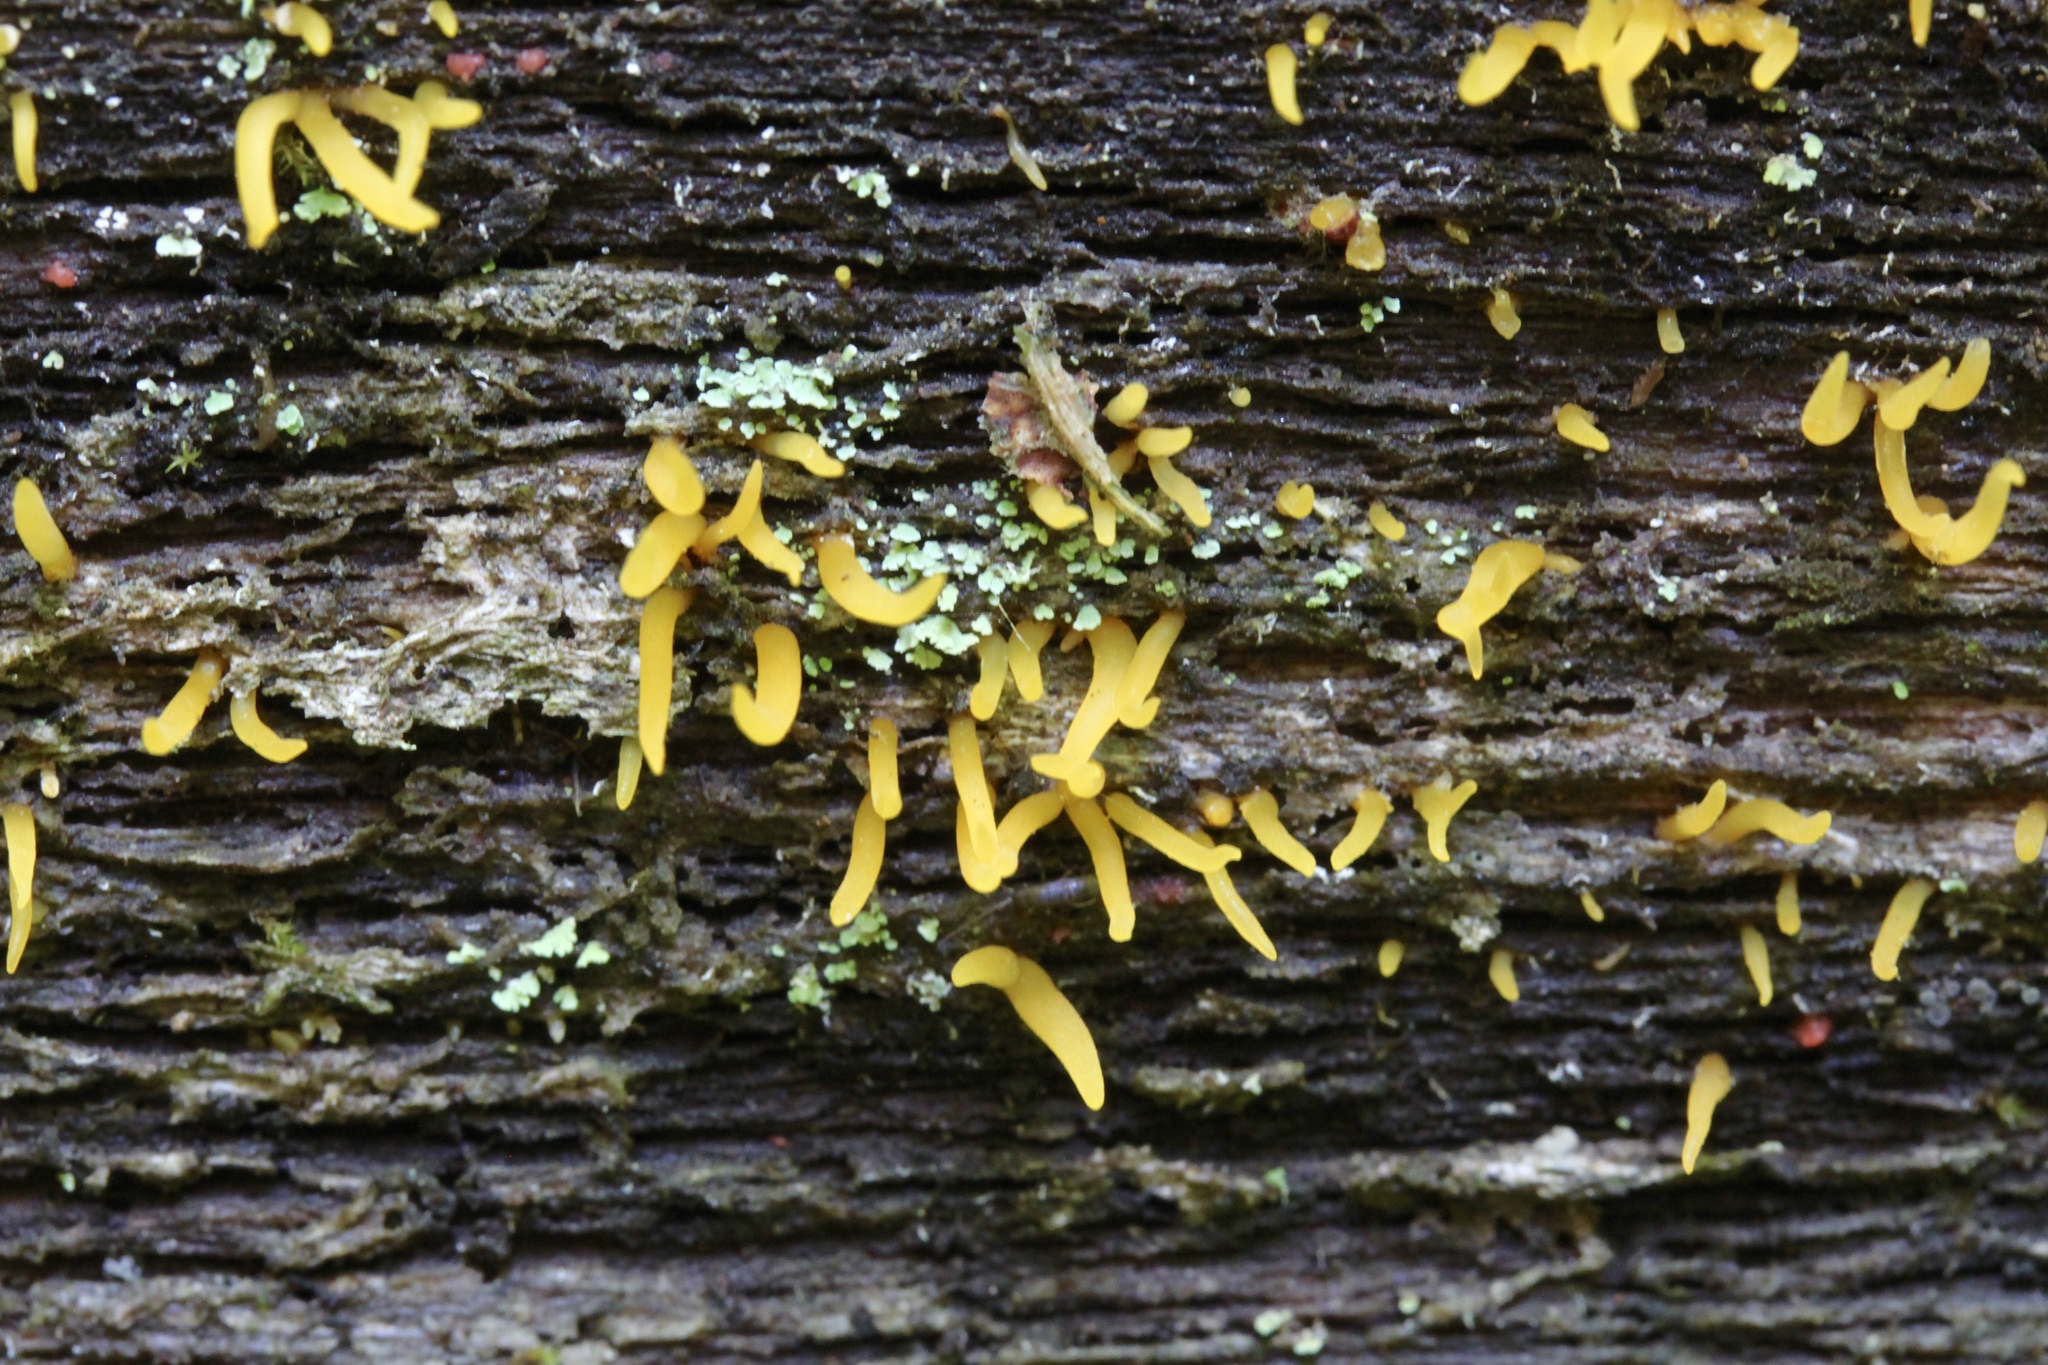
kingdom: Fungi
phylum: Basidiomycota
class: Dacrymycetes
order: Dacrymycetales
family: Dacrymycetaceae
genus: Calocera
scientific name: Calocera cornea
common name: Small stagshorn
